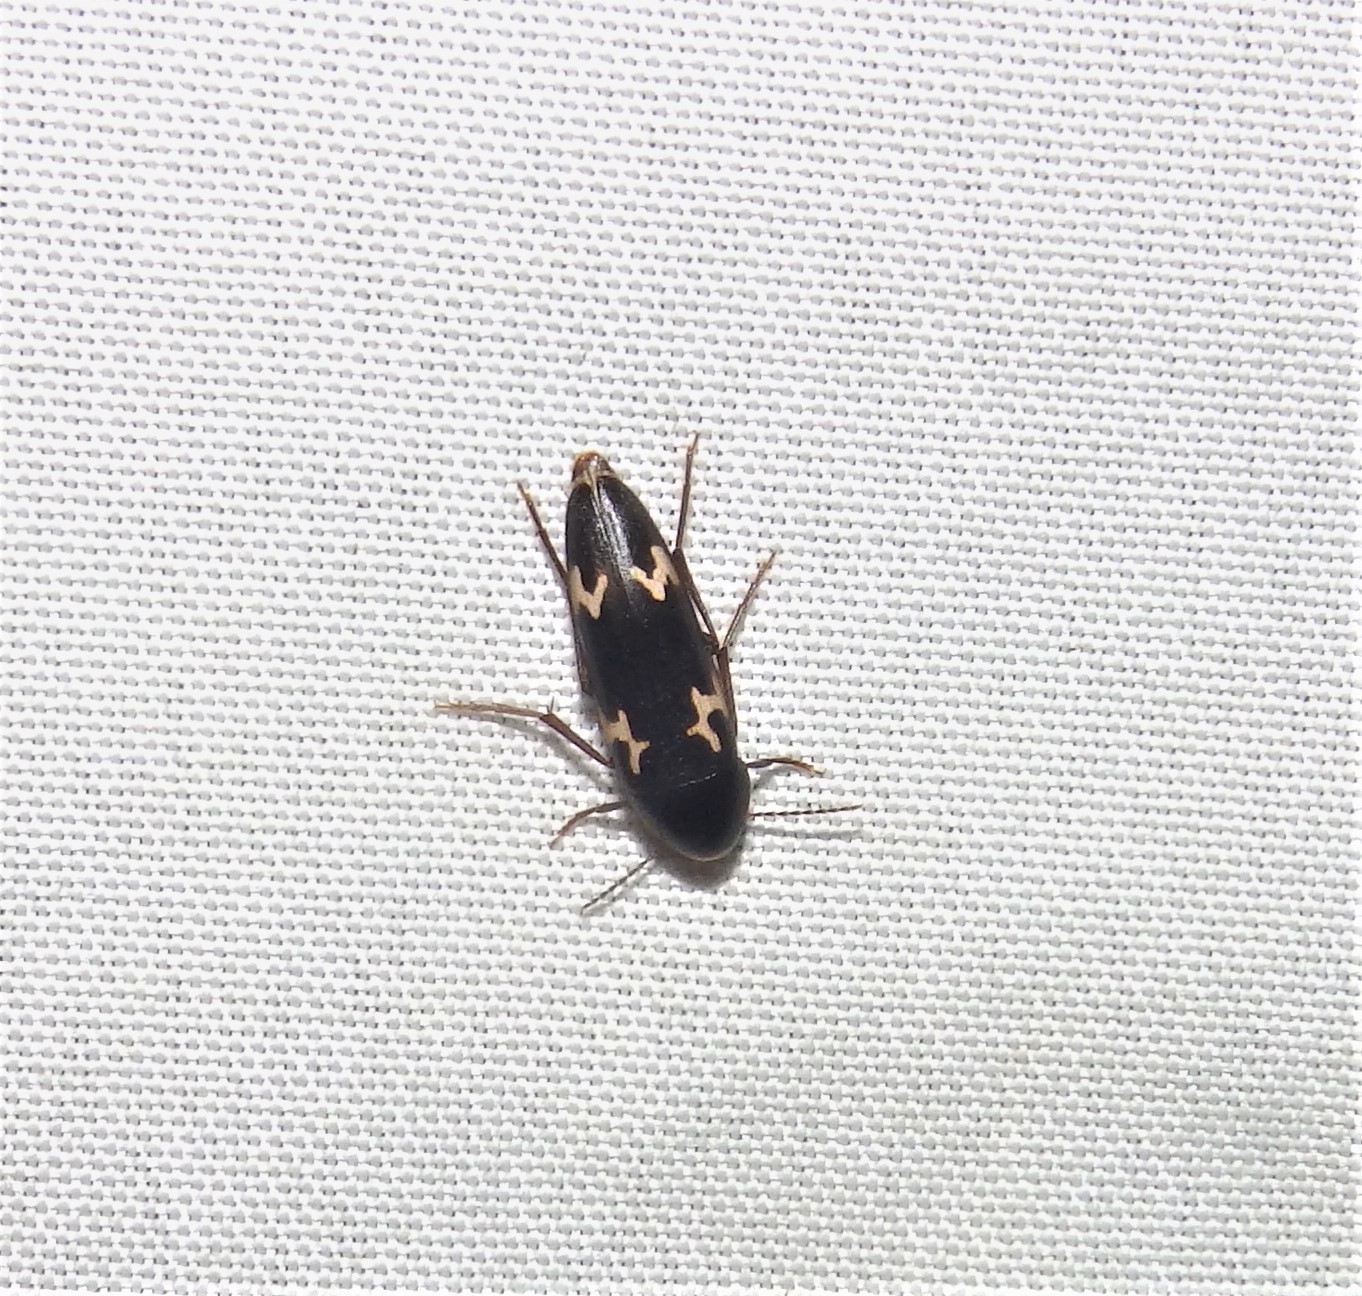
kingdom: Animalia
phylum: Arthropoda
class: Insecta
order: Coleoptera
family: Melandryidae
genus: Dircaea
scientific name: Dircaea liturata
